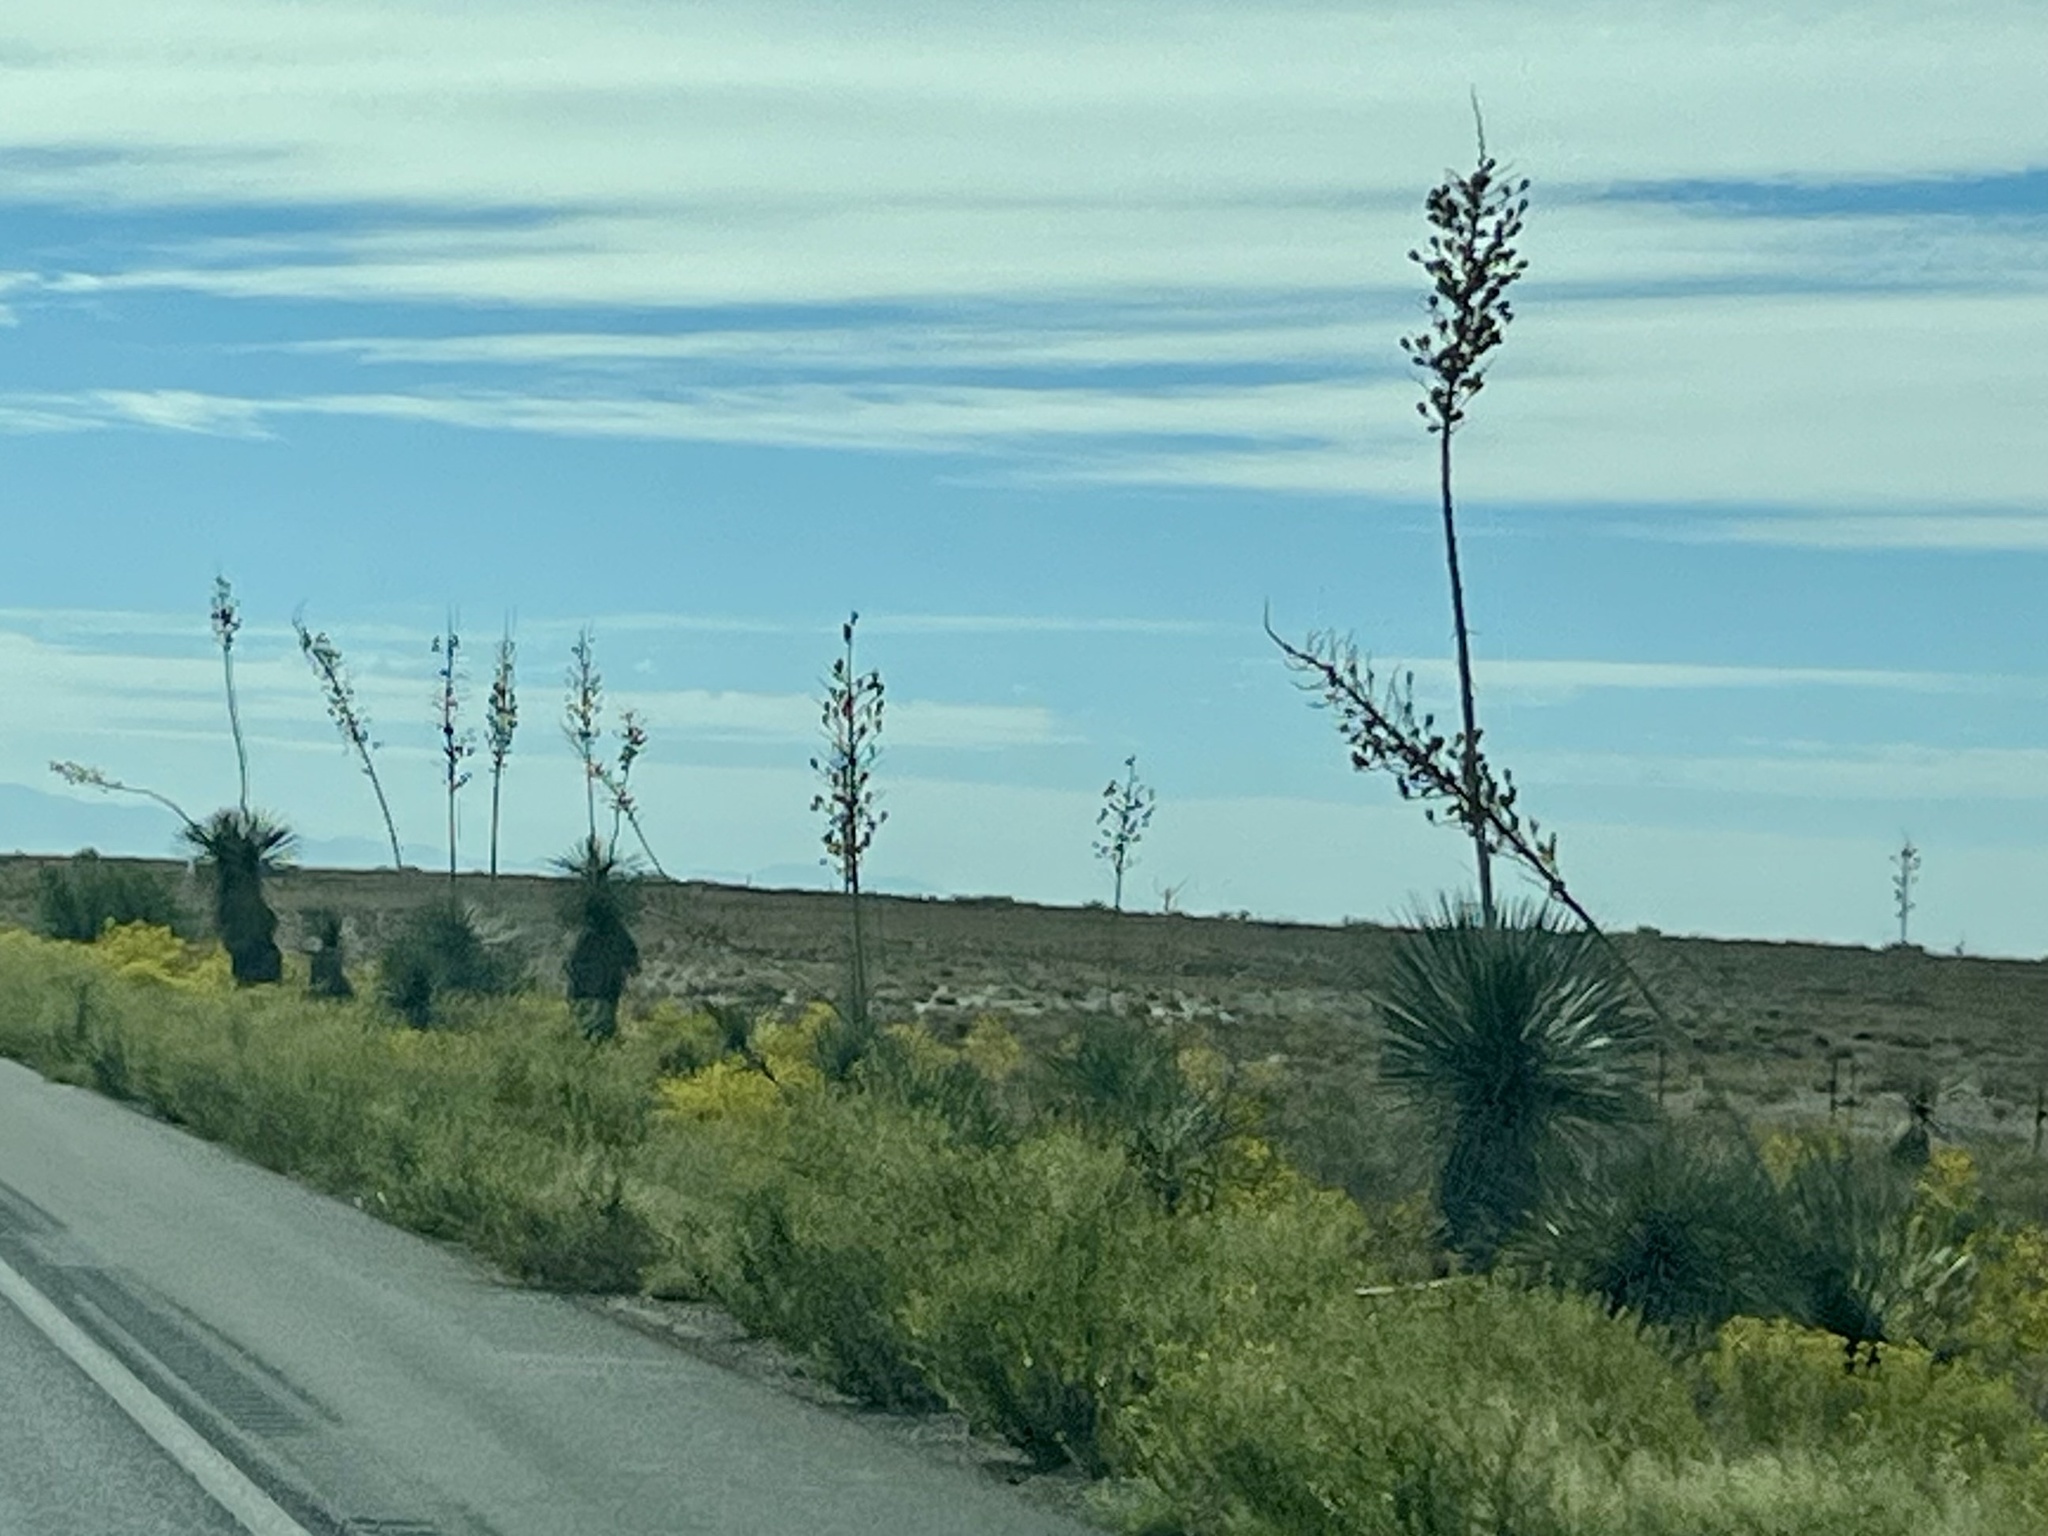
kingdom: Plantae
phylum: Tracheophyta
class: Liliopsida
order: Asparagales
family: Asparagaceae
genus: Yucca
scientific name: Yucca elata
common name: Palmella
